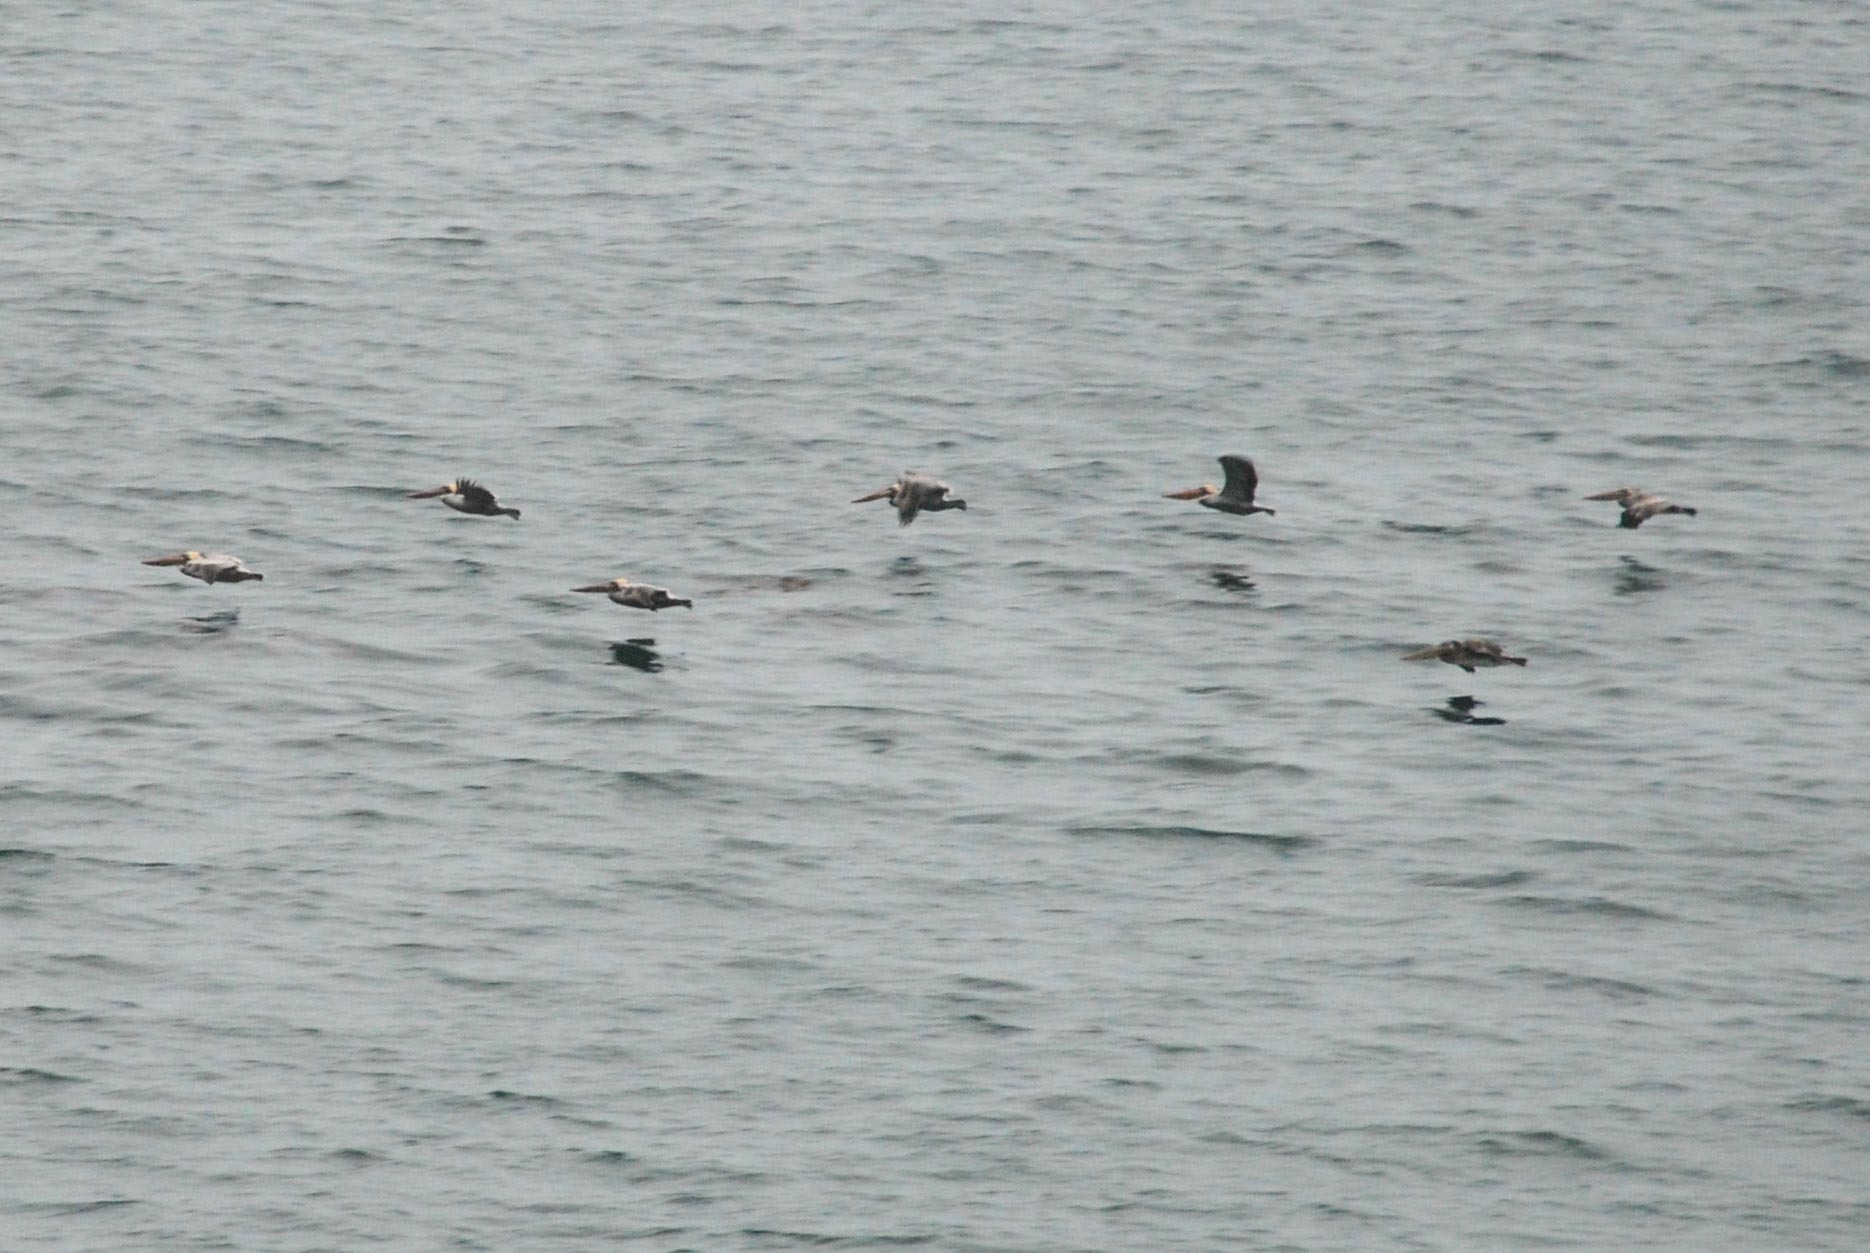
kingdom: Animalia
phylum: Chordata
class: Aves
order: Pelecaniformes
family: Pelecanidae
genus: Pelecanus
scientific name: Pelecanus occidentalis
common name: Brown pelican
